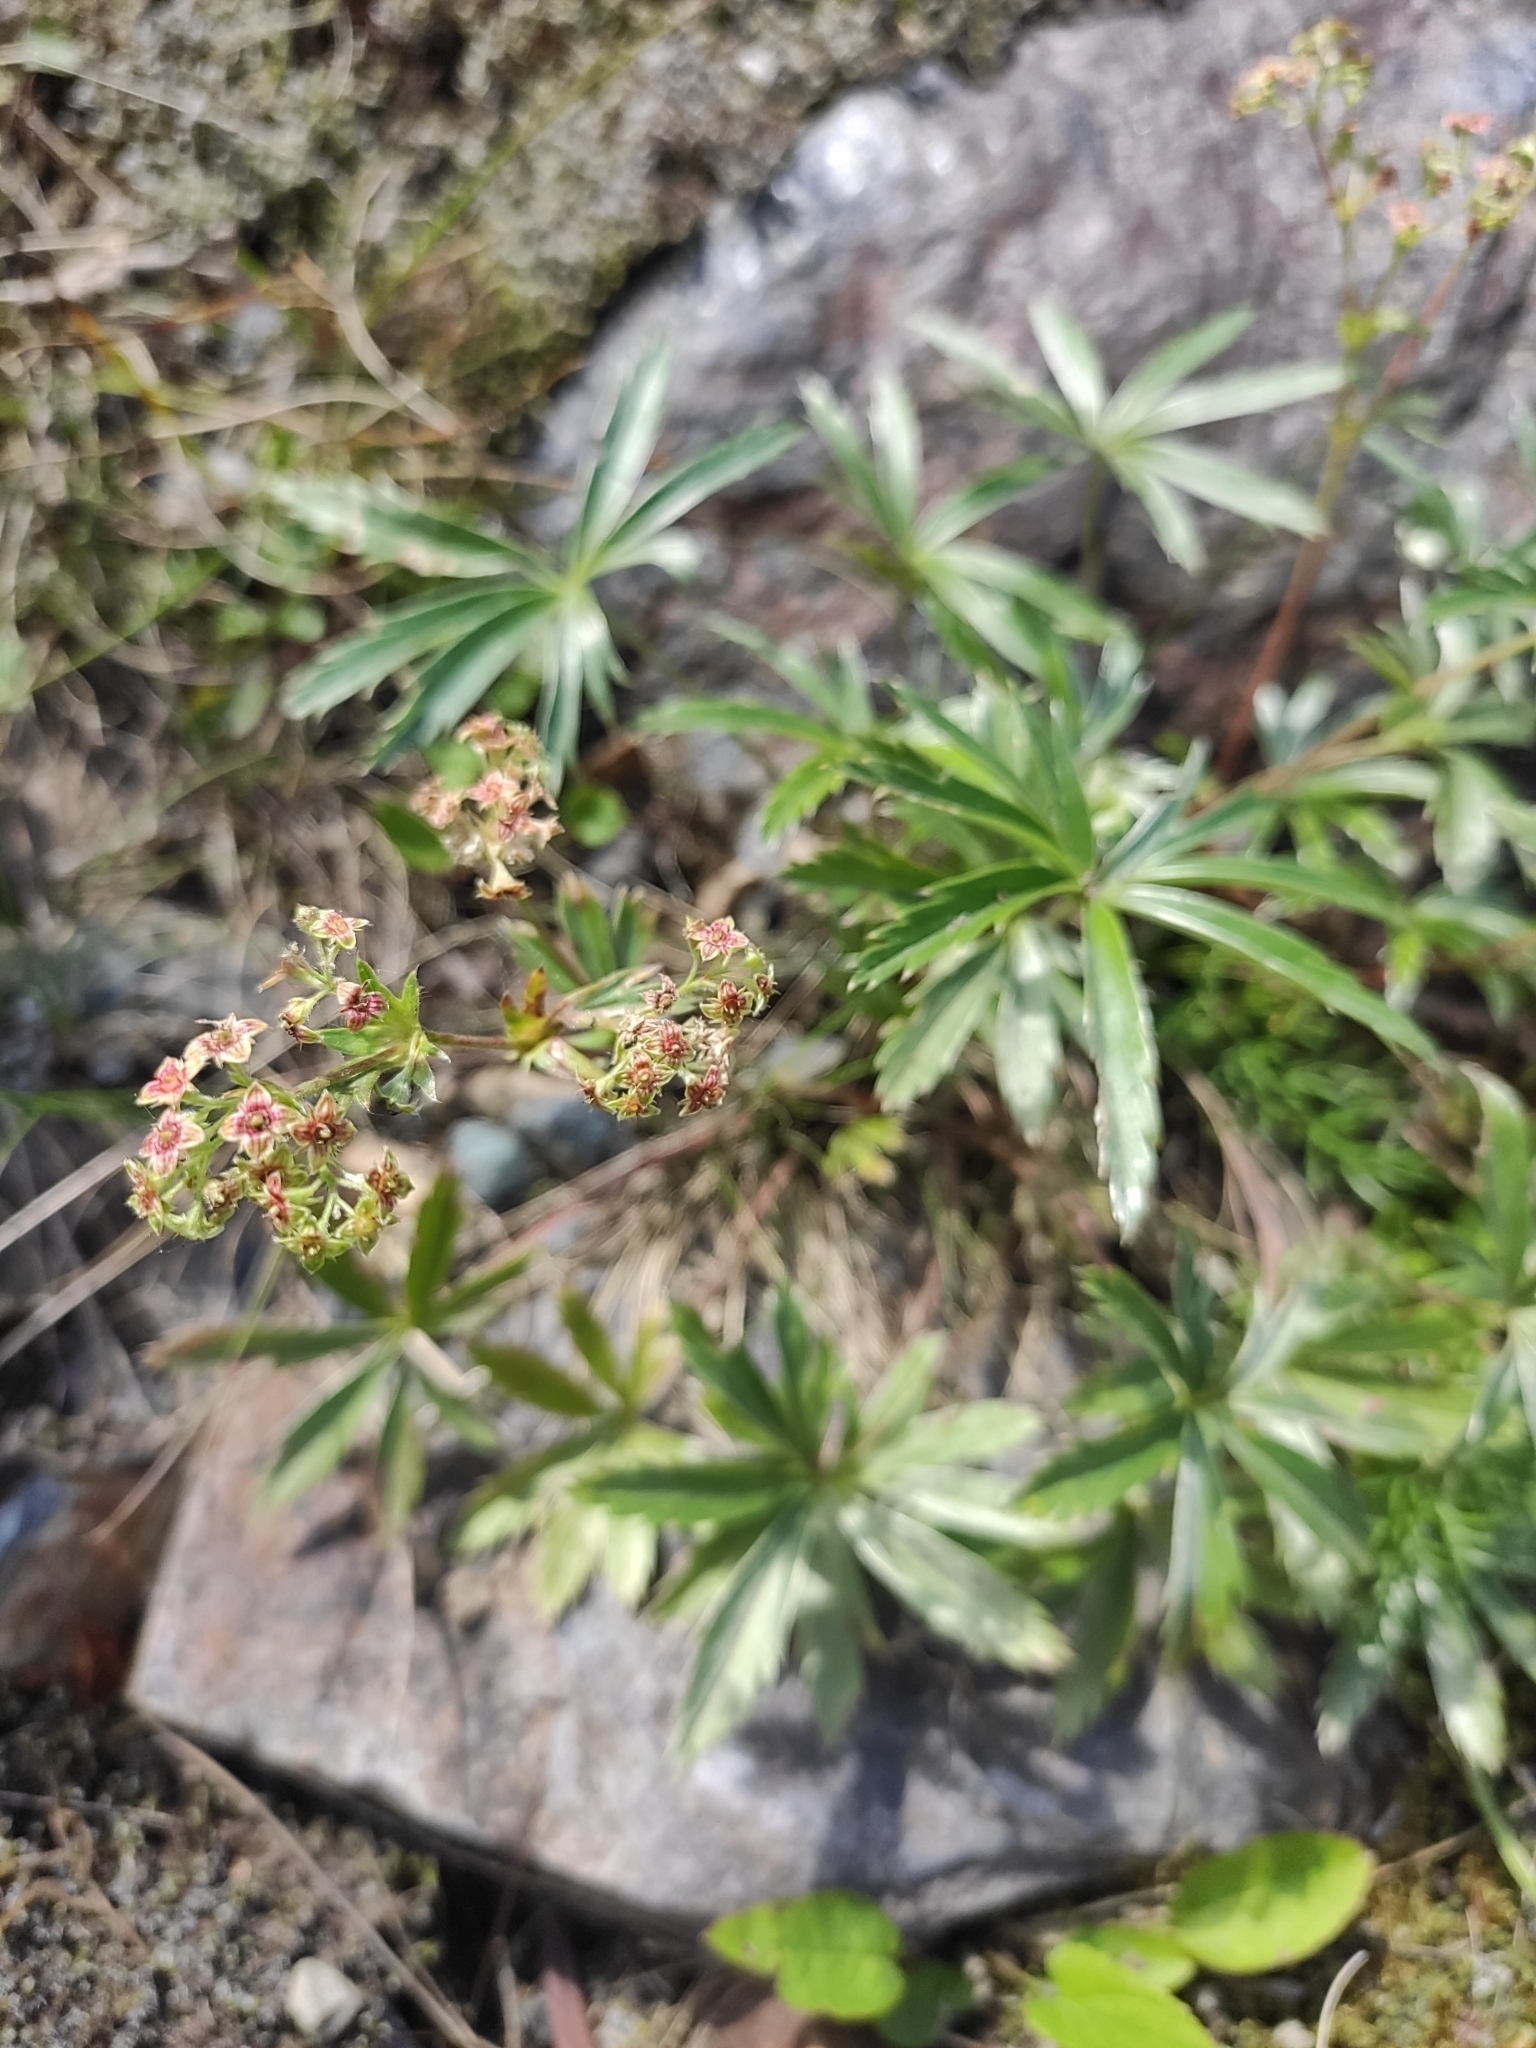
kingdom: Plantae
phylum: Tracheophyta
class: Magnoliopsida
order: Rosales
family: Rosaceae
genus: Alchemilla
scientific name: Alchemilla sericea
